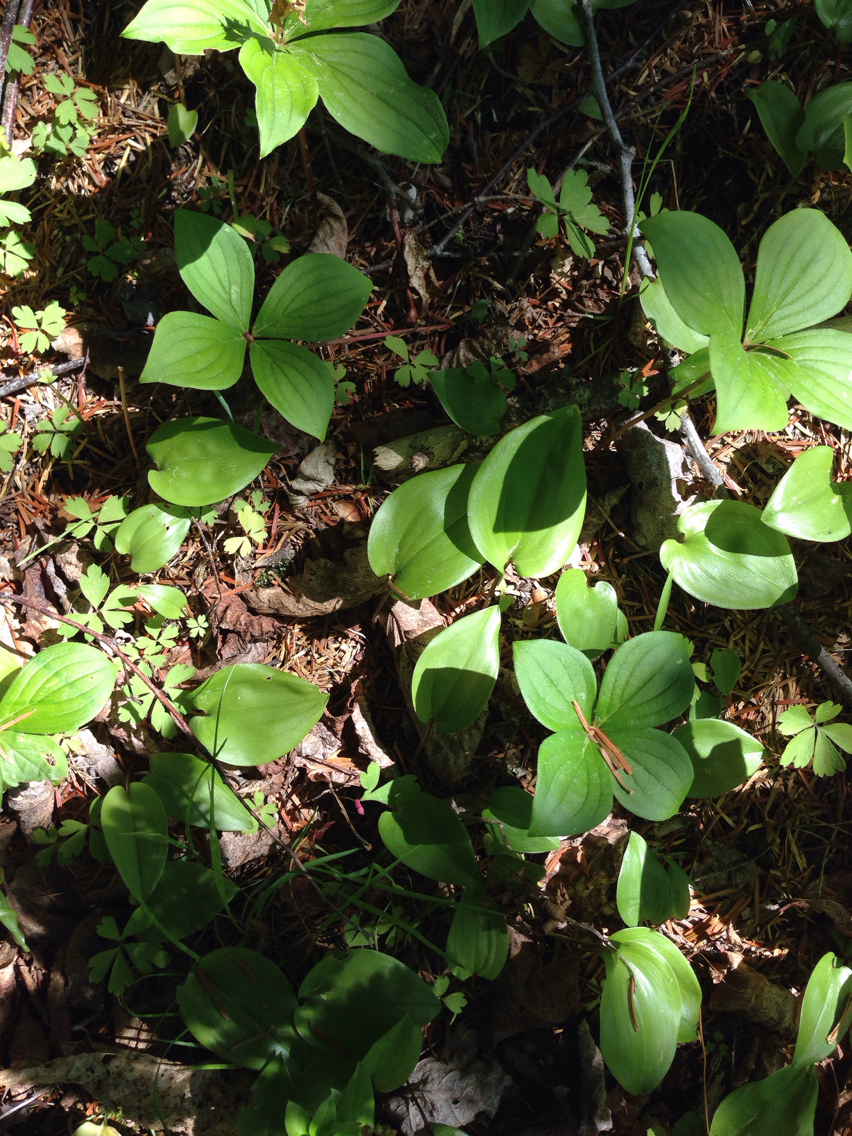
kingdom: Plantae
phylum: Tracheophyta
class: Liliopsida
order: Asparagales
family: Asparagaceae
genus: Maianthemum
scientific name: Maianthemum canadense
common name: False lily-of-the-valley
